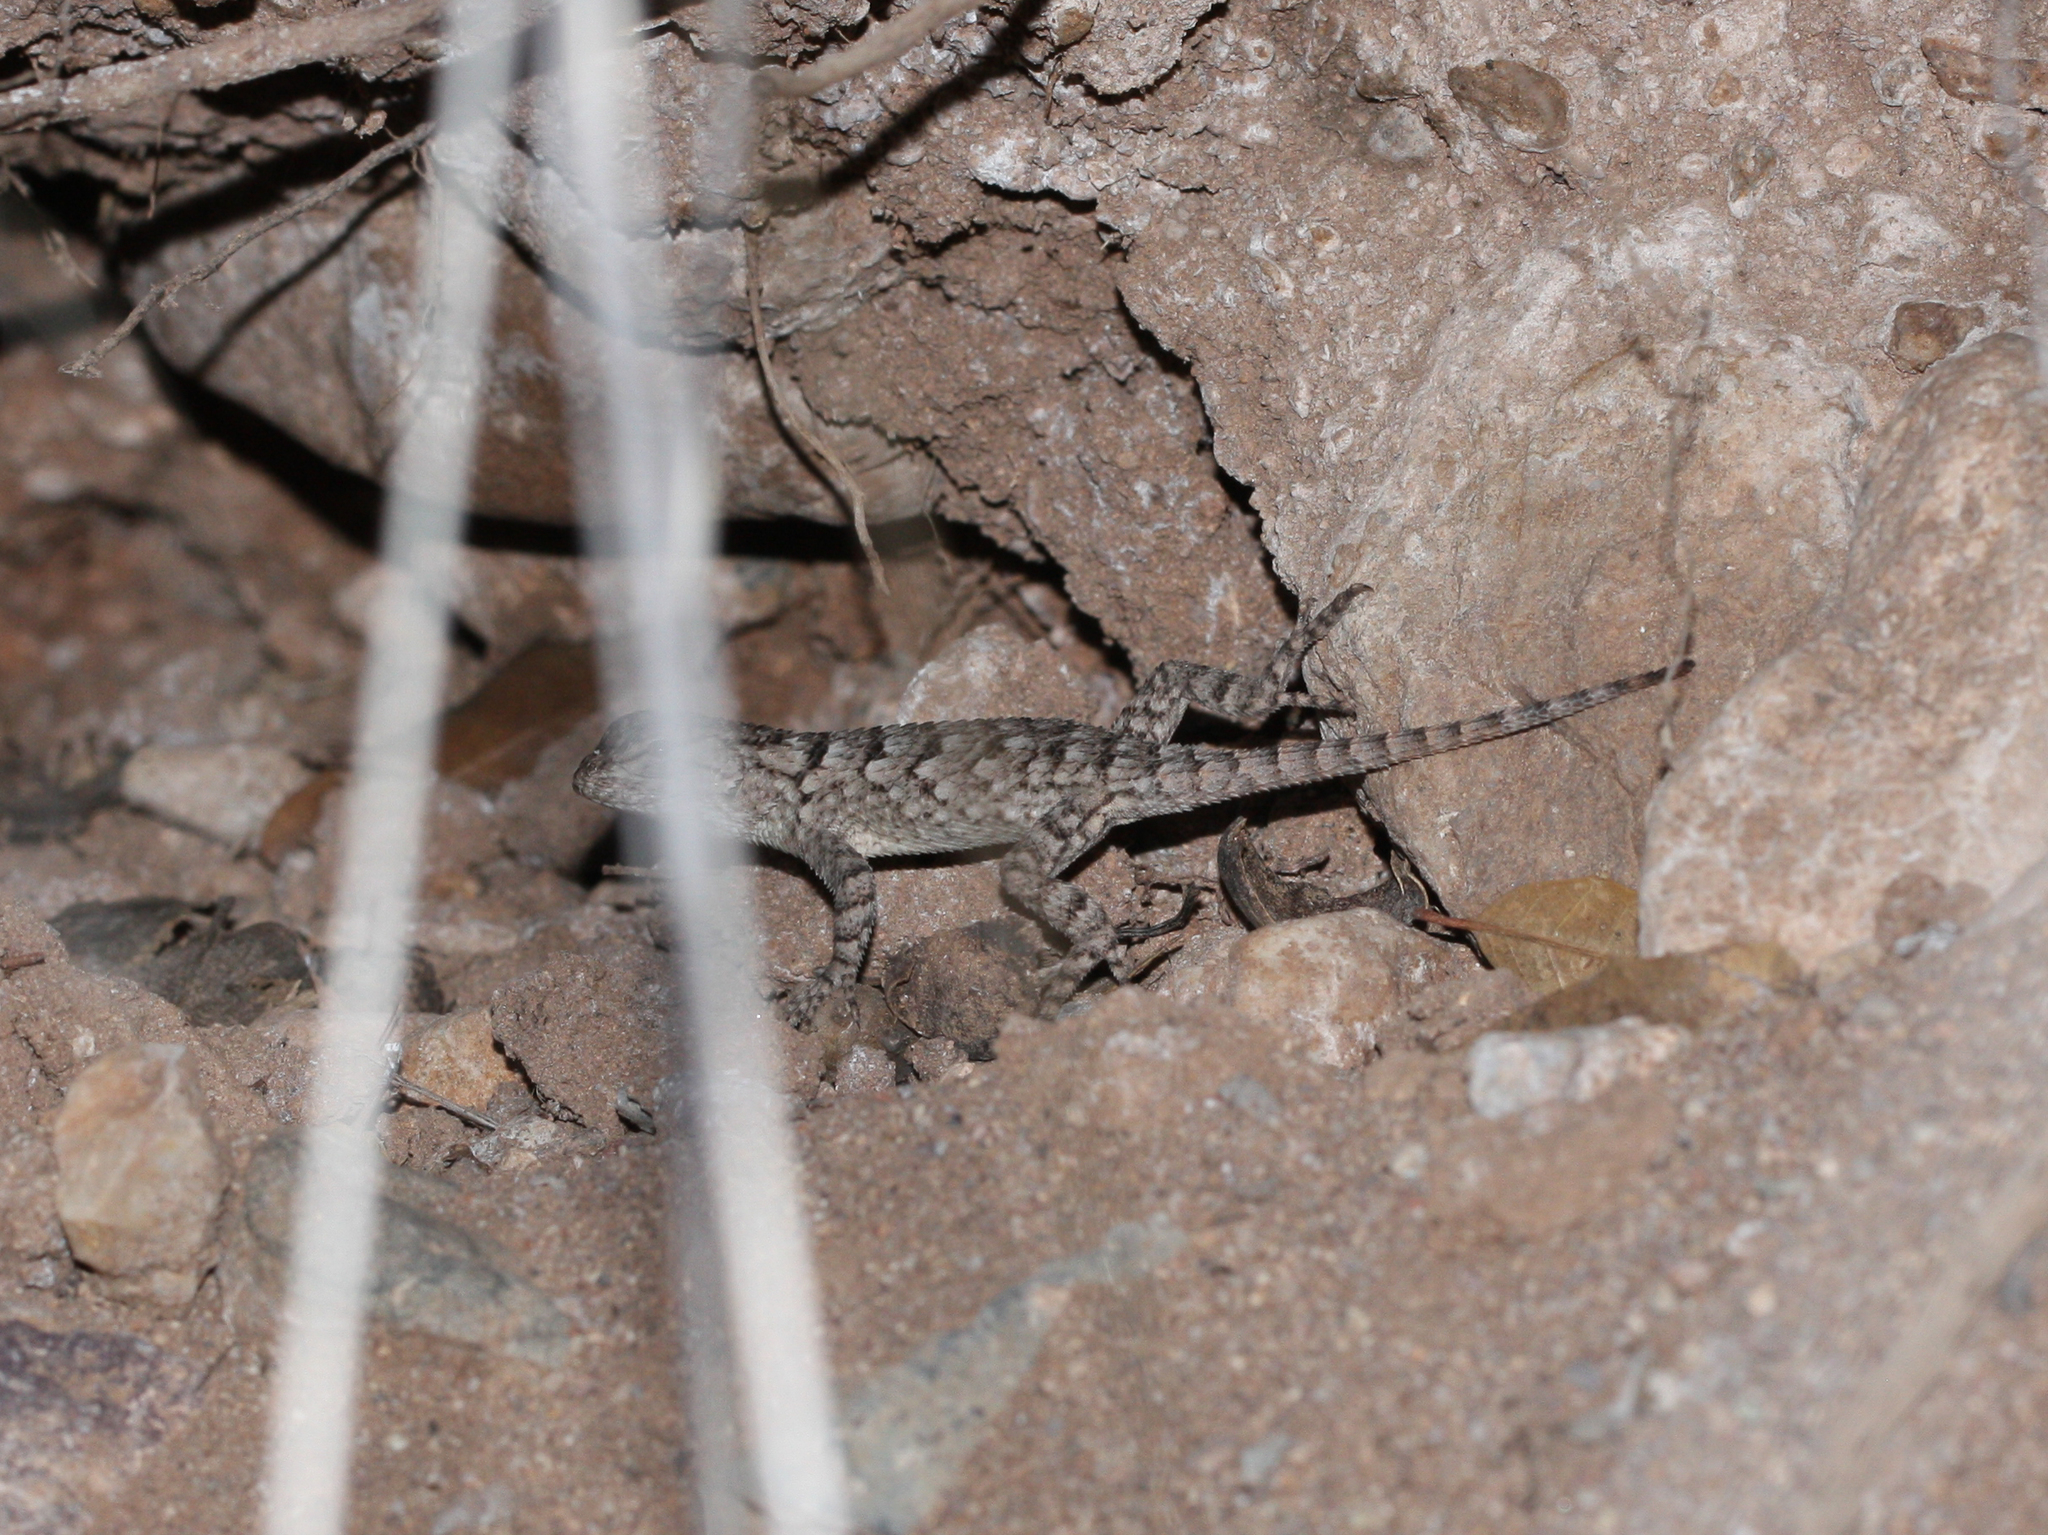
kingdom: Animalia
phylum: Chordata
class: Squamata
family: Phrynosomatidae
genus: Sceloporus
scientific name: Sceloporus clarkii
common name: Clark's spiny lizard
